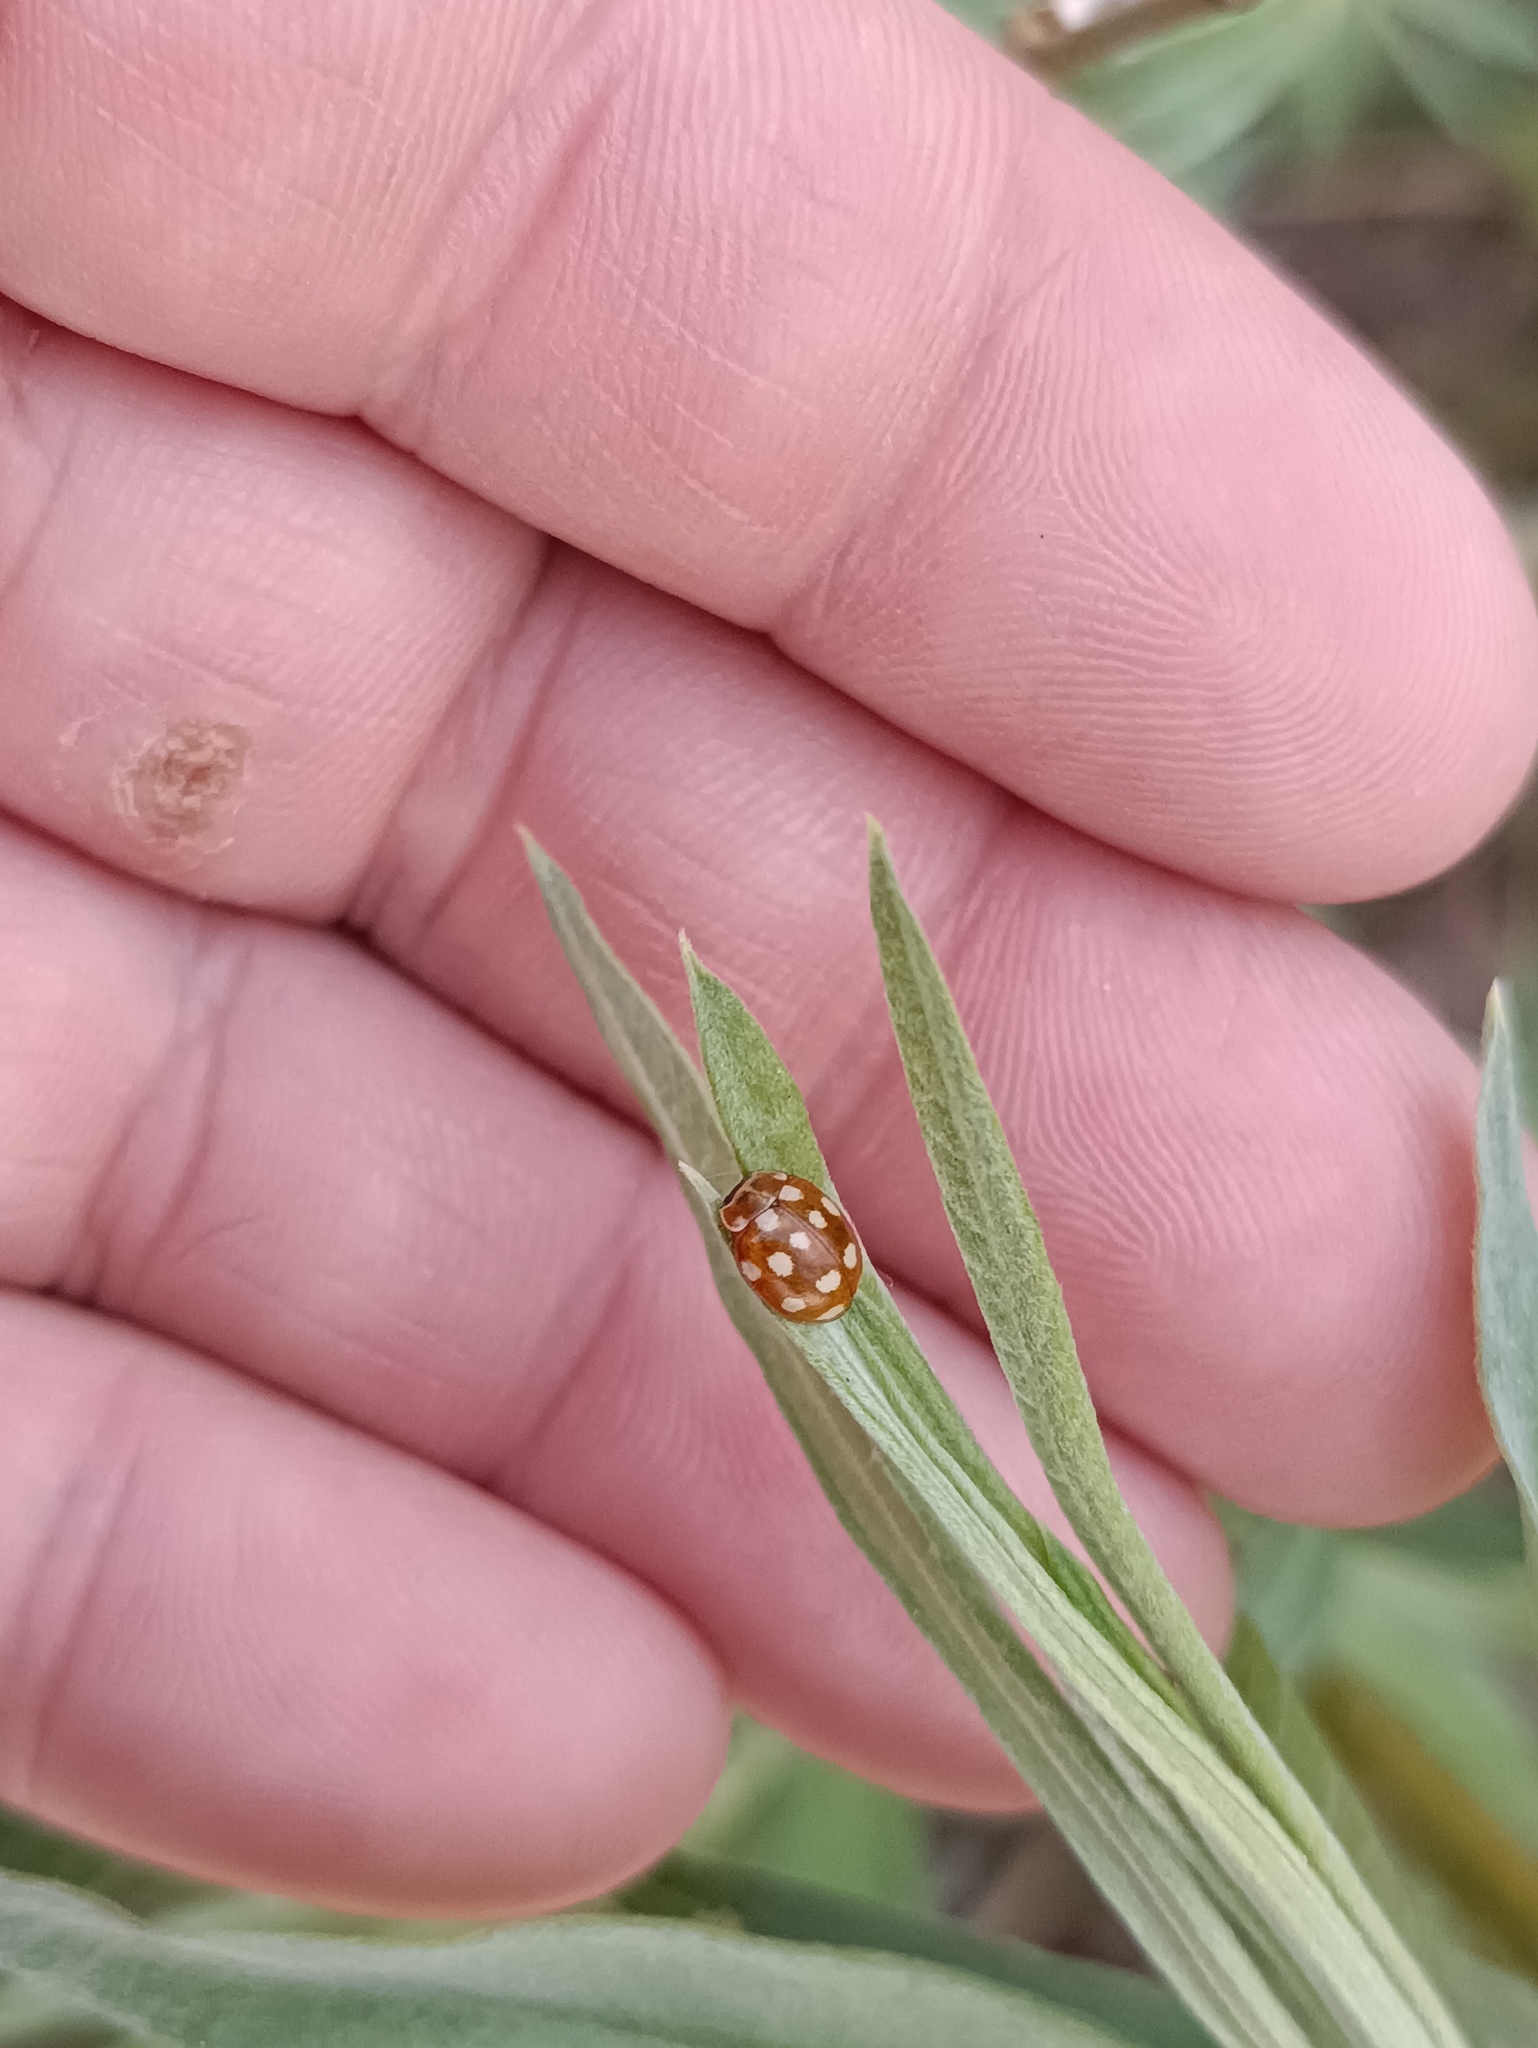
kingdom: Animalia
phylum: Arthropoda
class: Insecta
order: Coleoptera
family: Coccinellidae
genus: Calvia
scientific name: Calvia quatuordecimguttata
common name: Cream-spot ladybird
